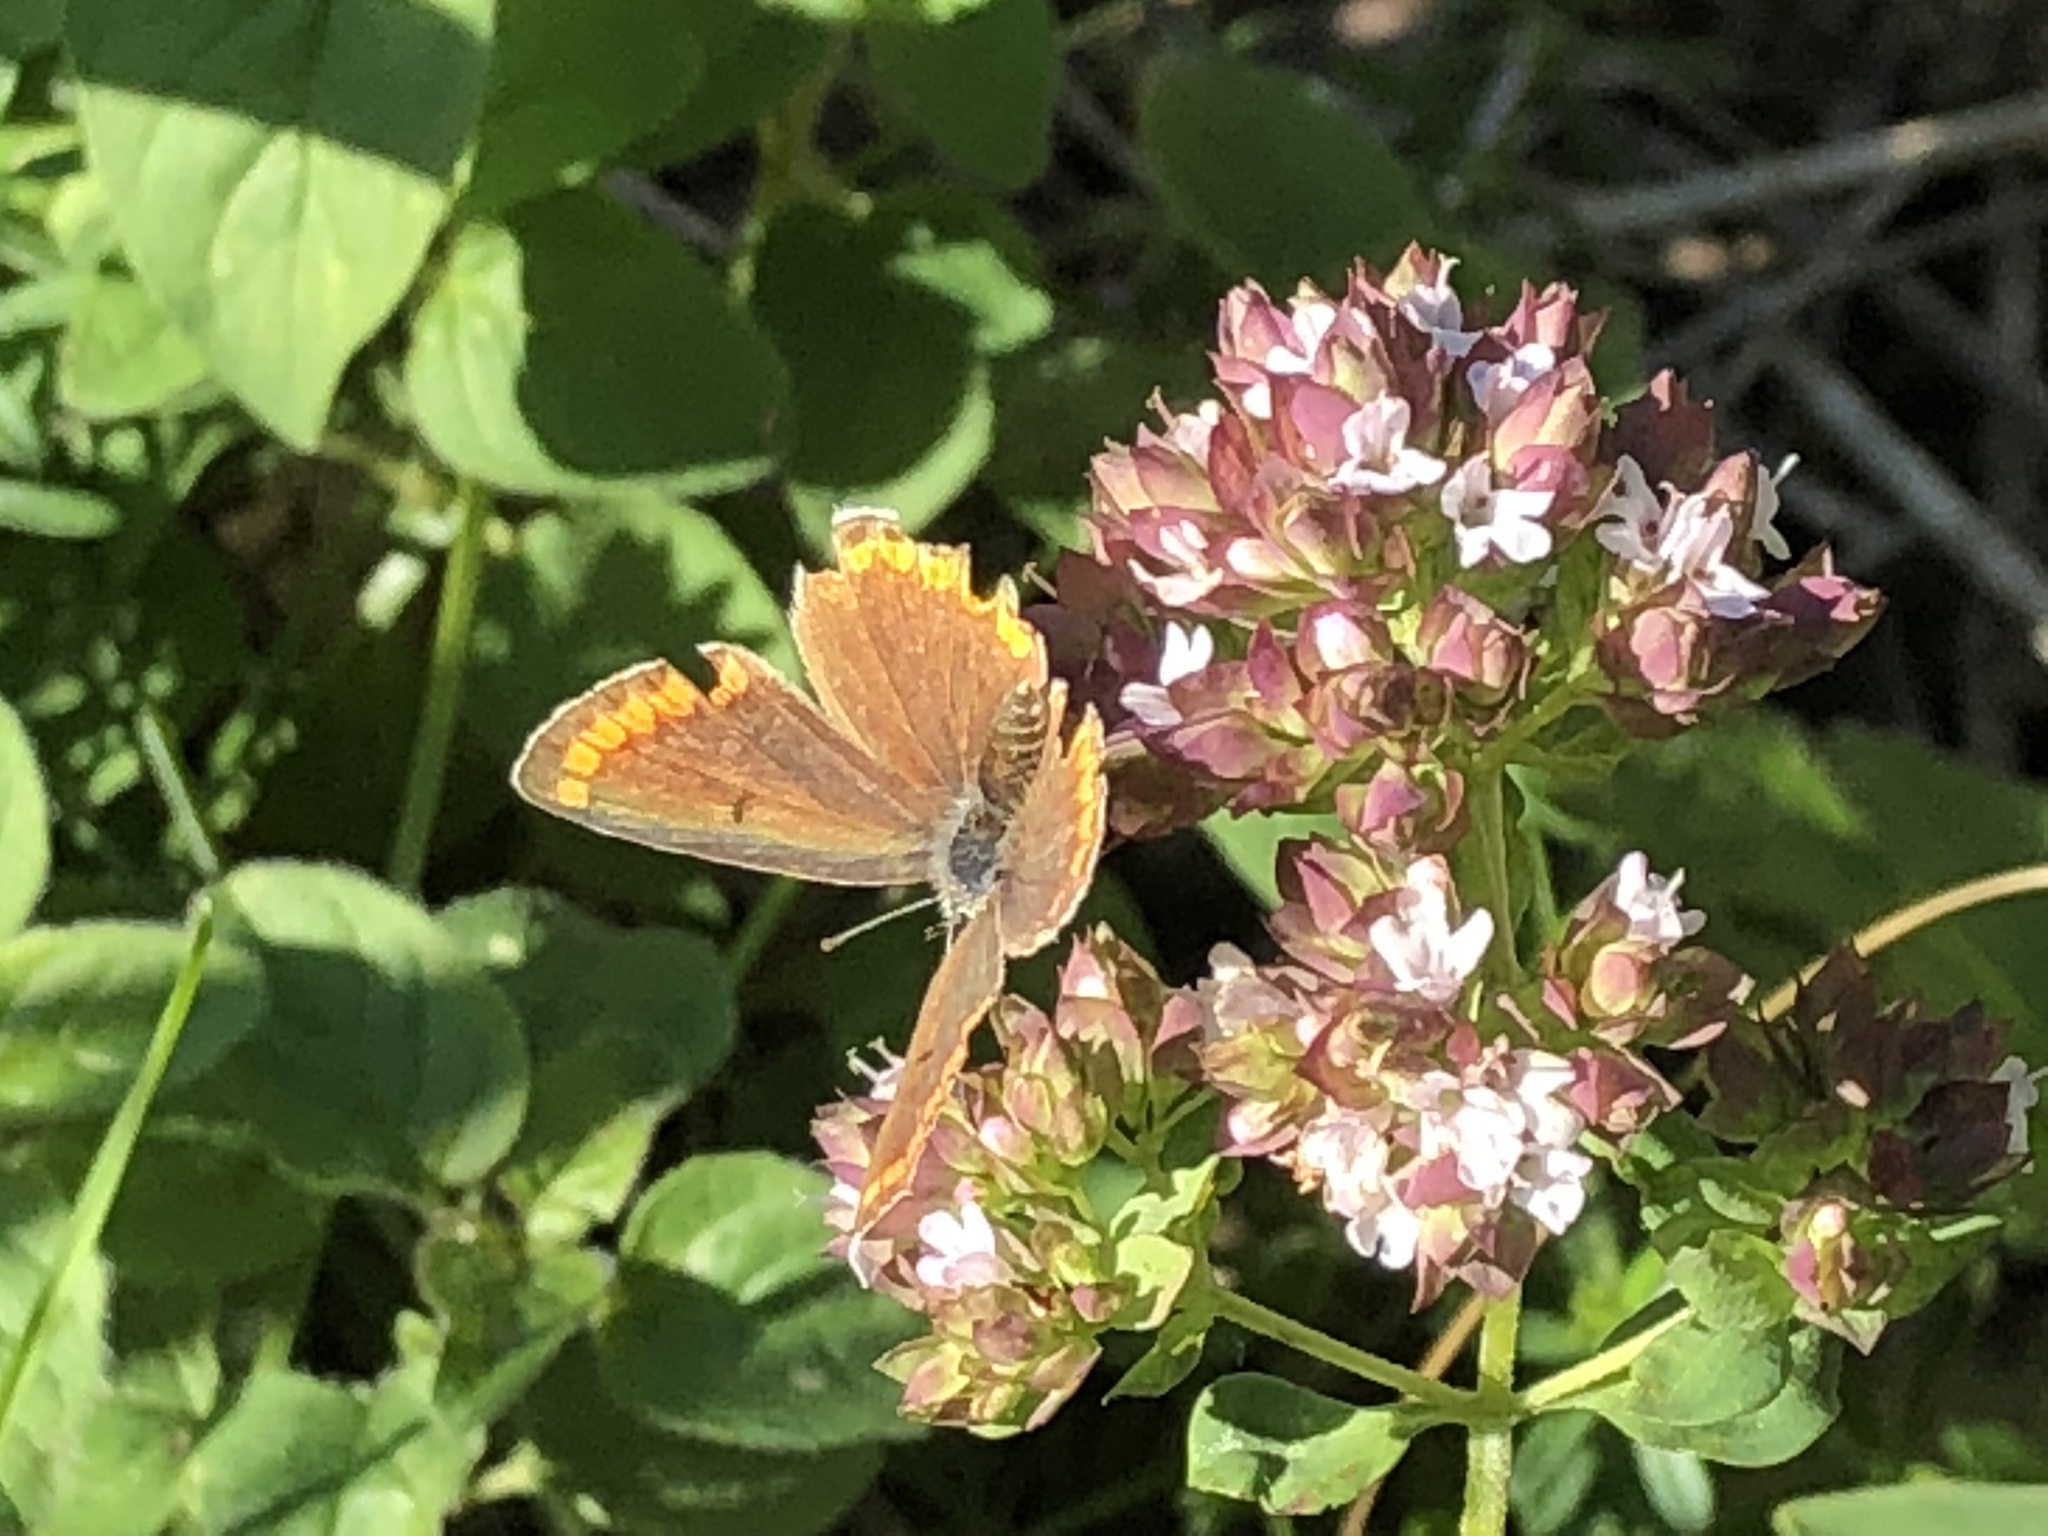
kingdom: Animalia
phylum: Arthropoda
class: Insecta
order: Lepidoptera
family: Lycaenidae
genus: Aricia
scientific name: Aricia agestis
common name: Brown argus
